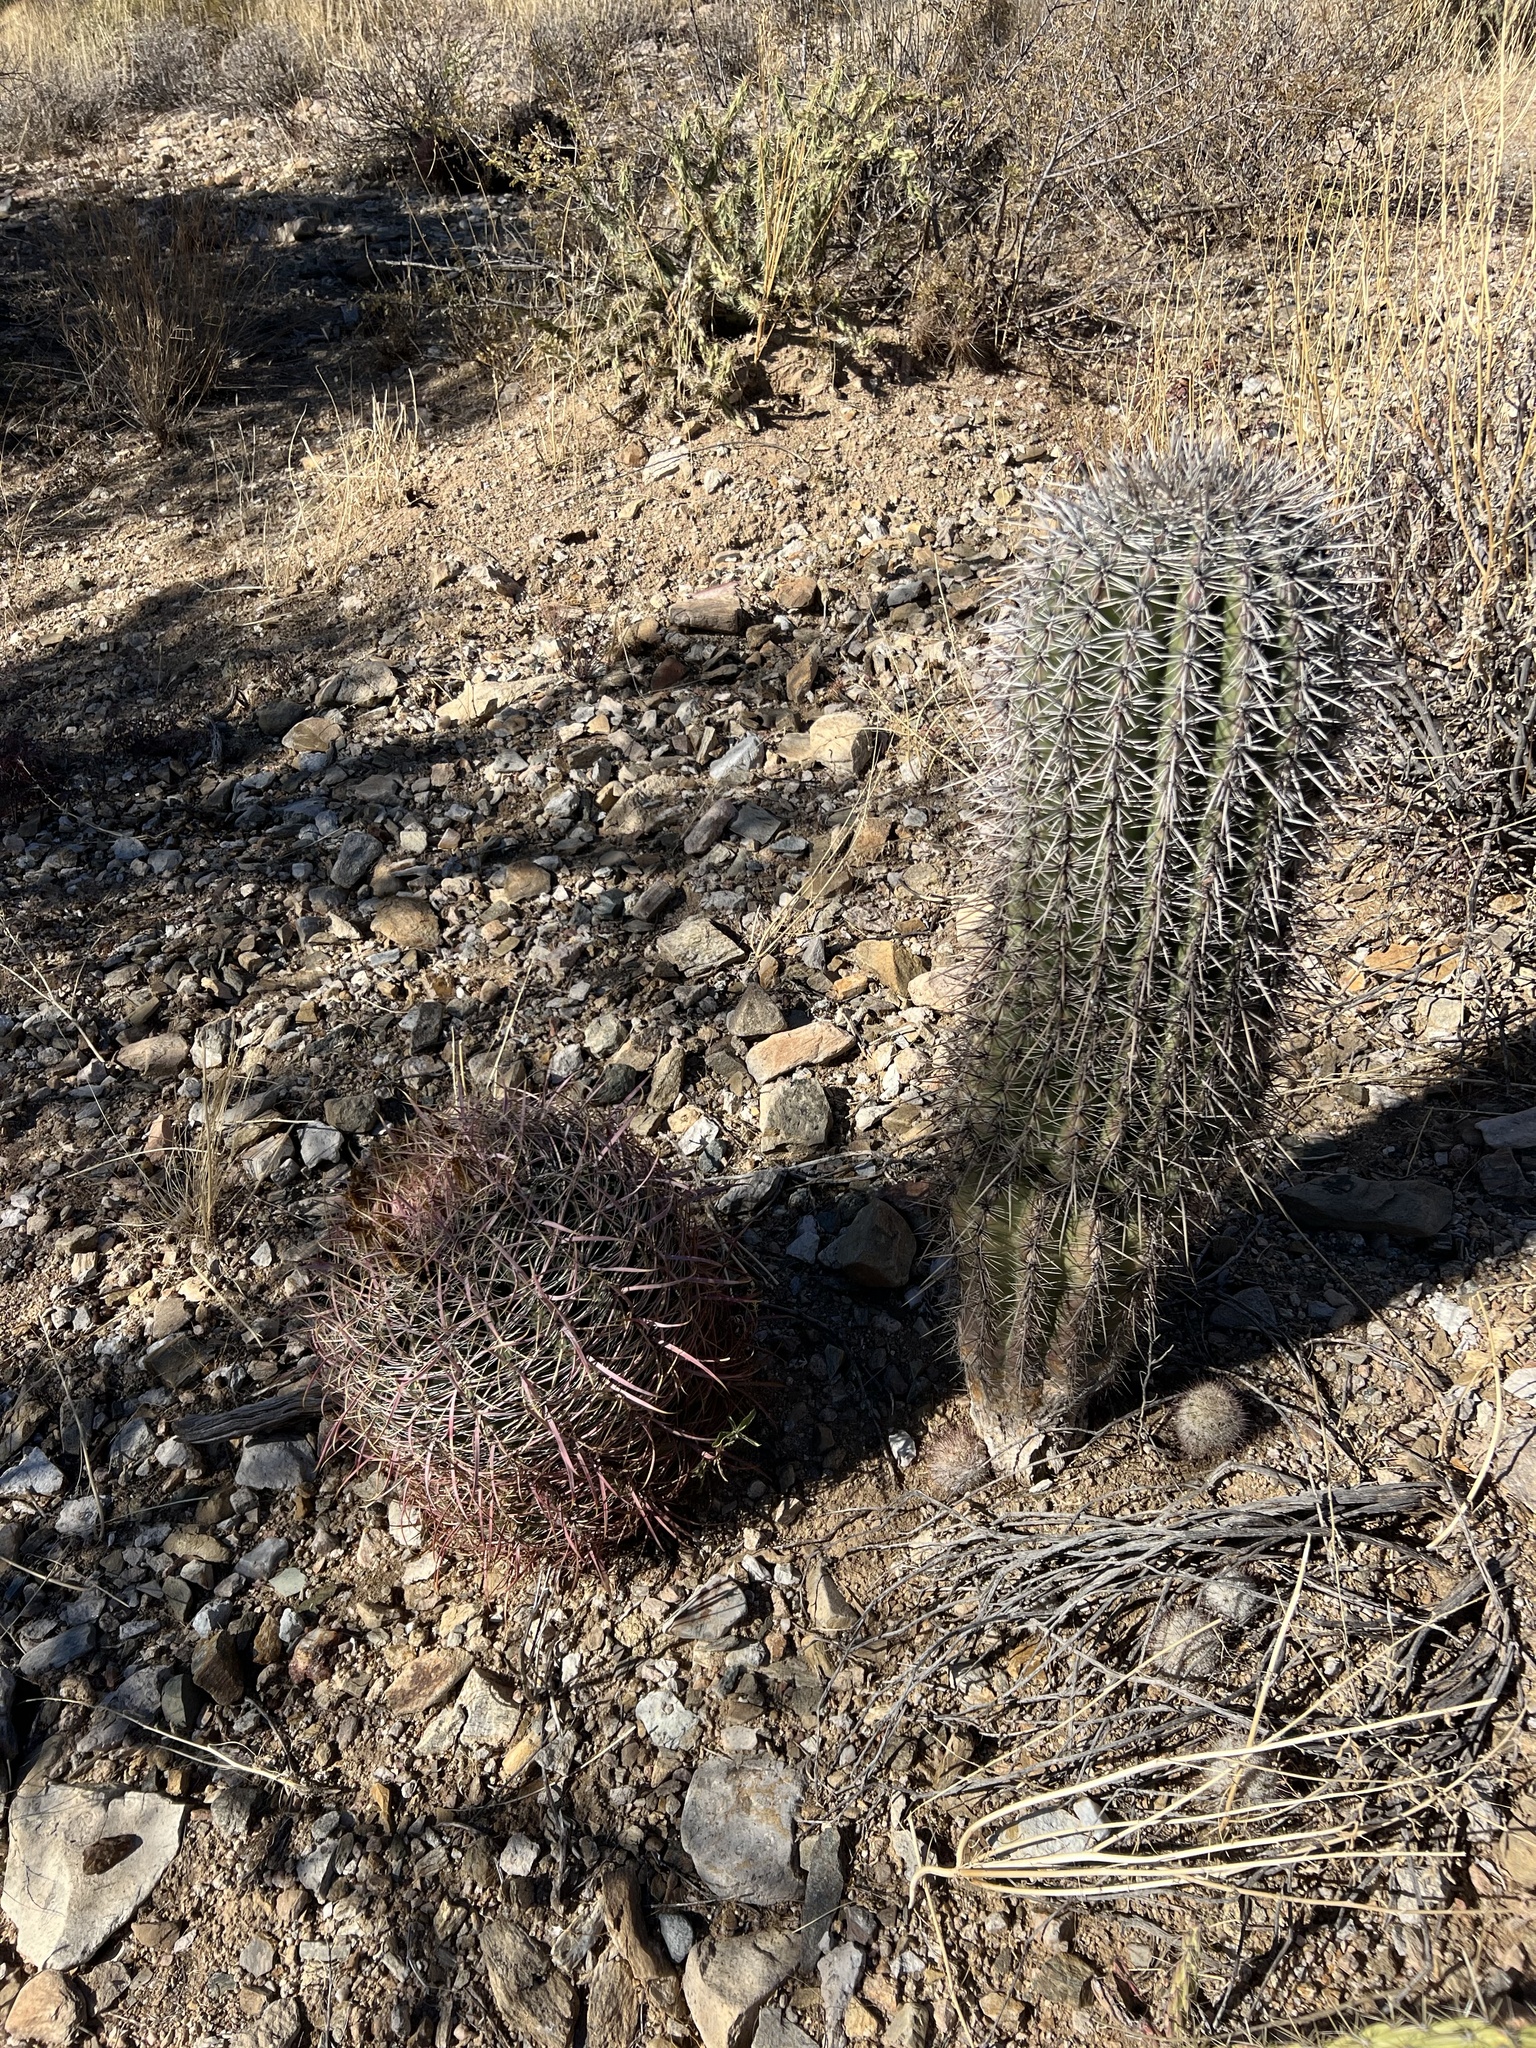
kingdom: Plantae
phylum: Tracheophyta
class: Magnoliopsida
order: Caryophyllales
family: Cactaceae
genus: Ferocactus
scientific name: Ferocactus cylindraceus
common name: California barrel cactus
